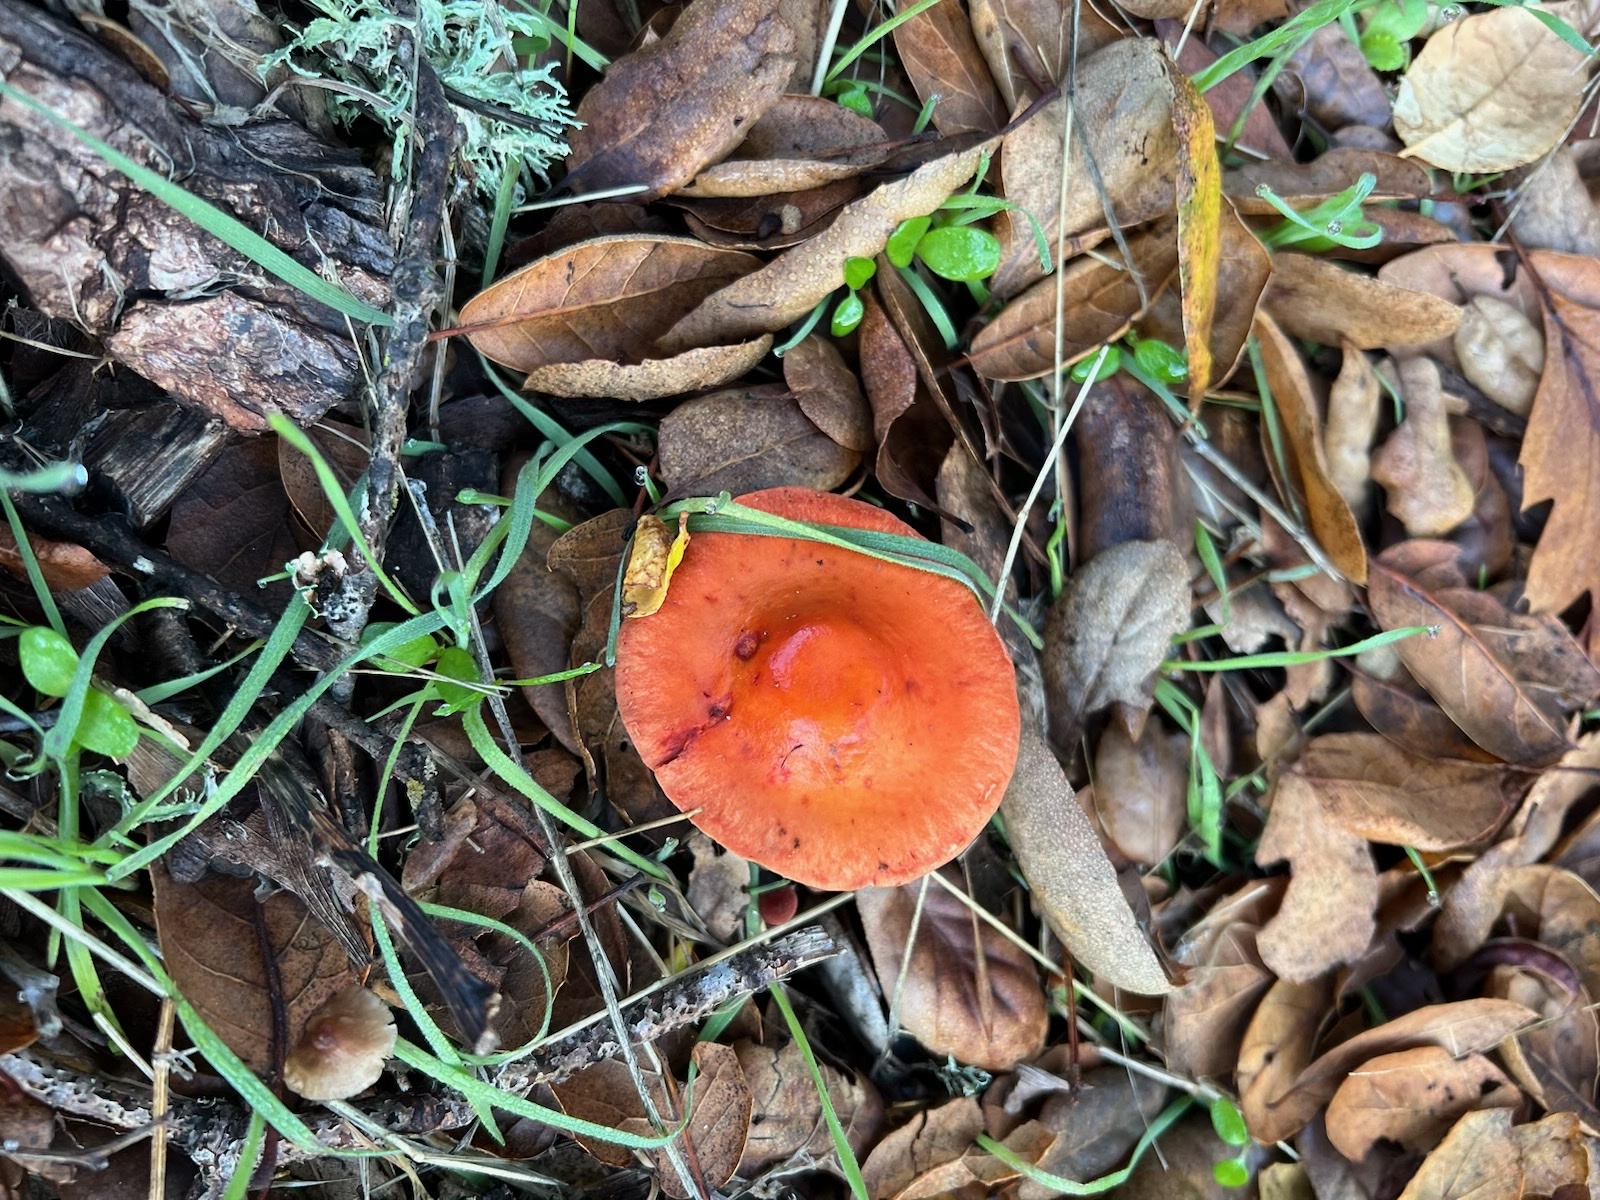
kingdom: Fungi
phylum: Basidiomycota
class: Agaricomycetes
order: Agaricales
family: Strophariaceae
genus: Leratiomyces
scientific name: Leratiomyces ceres
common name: Redlead roundhead
